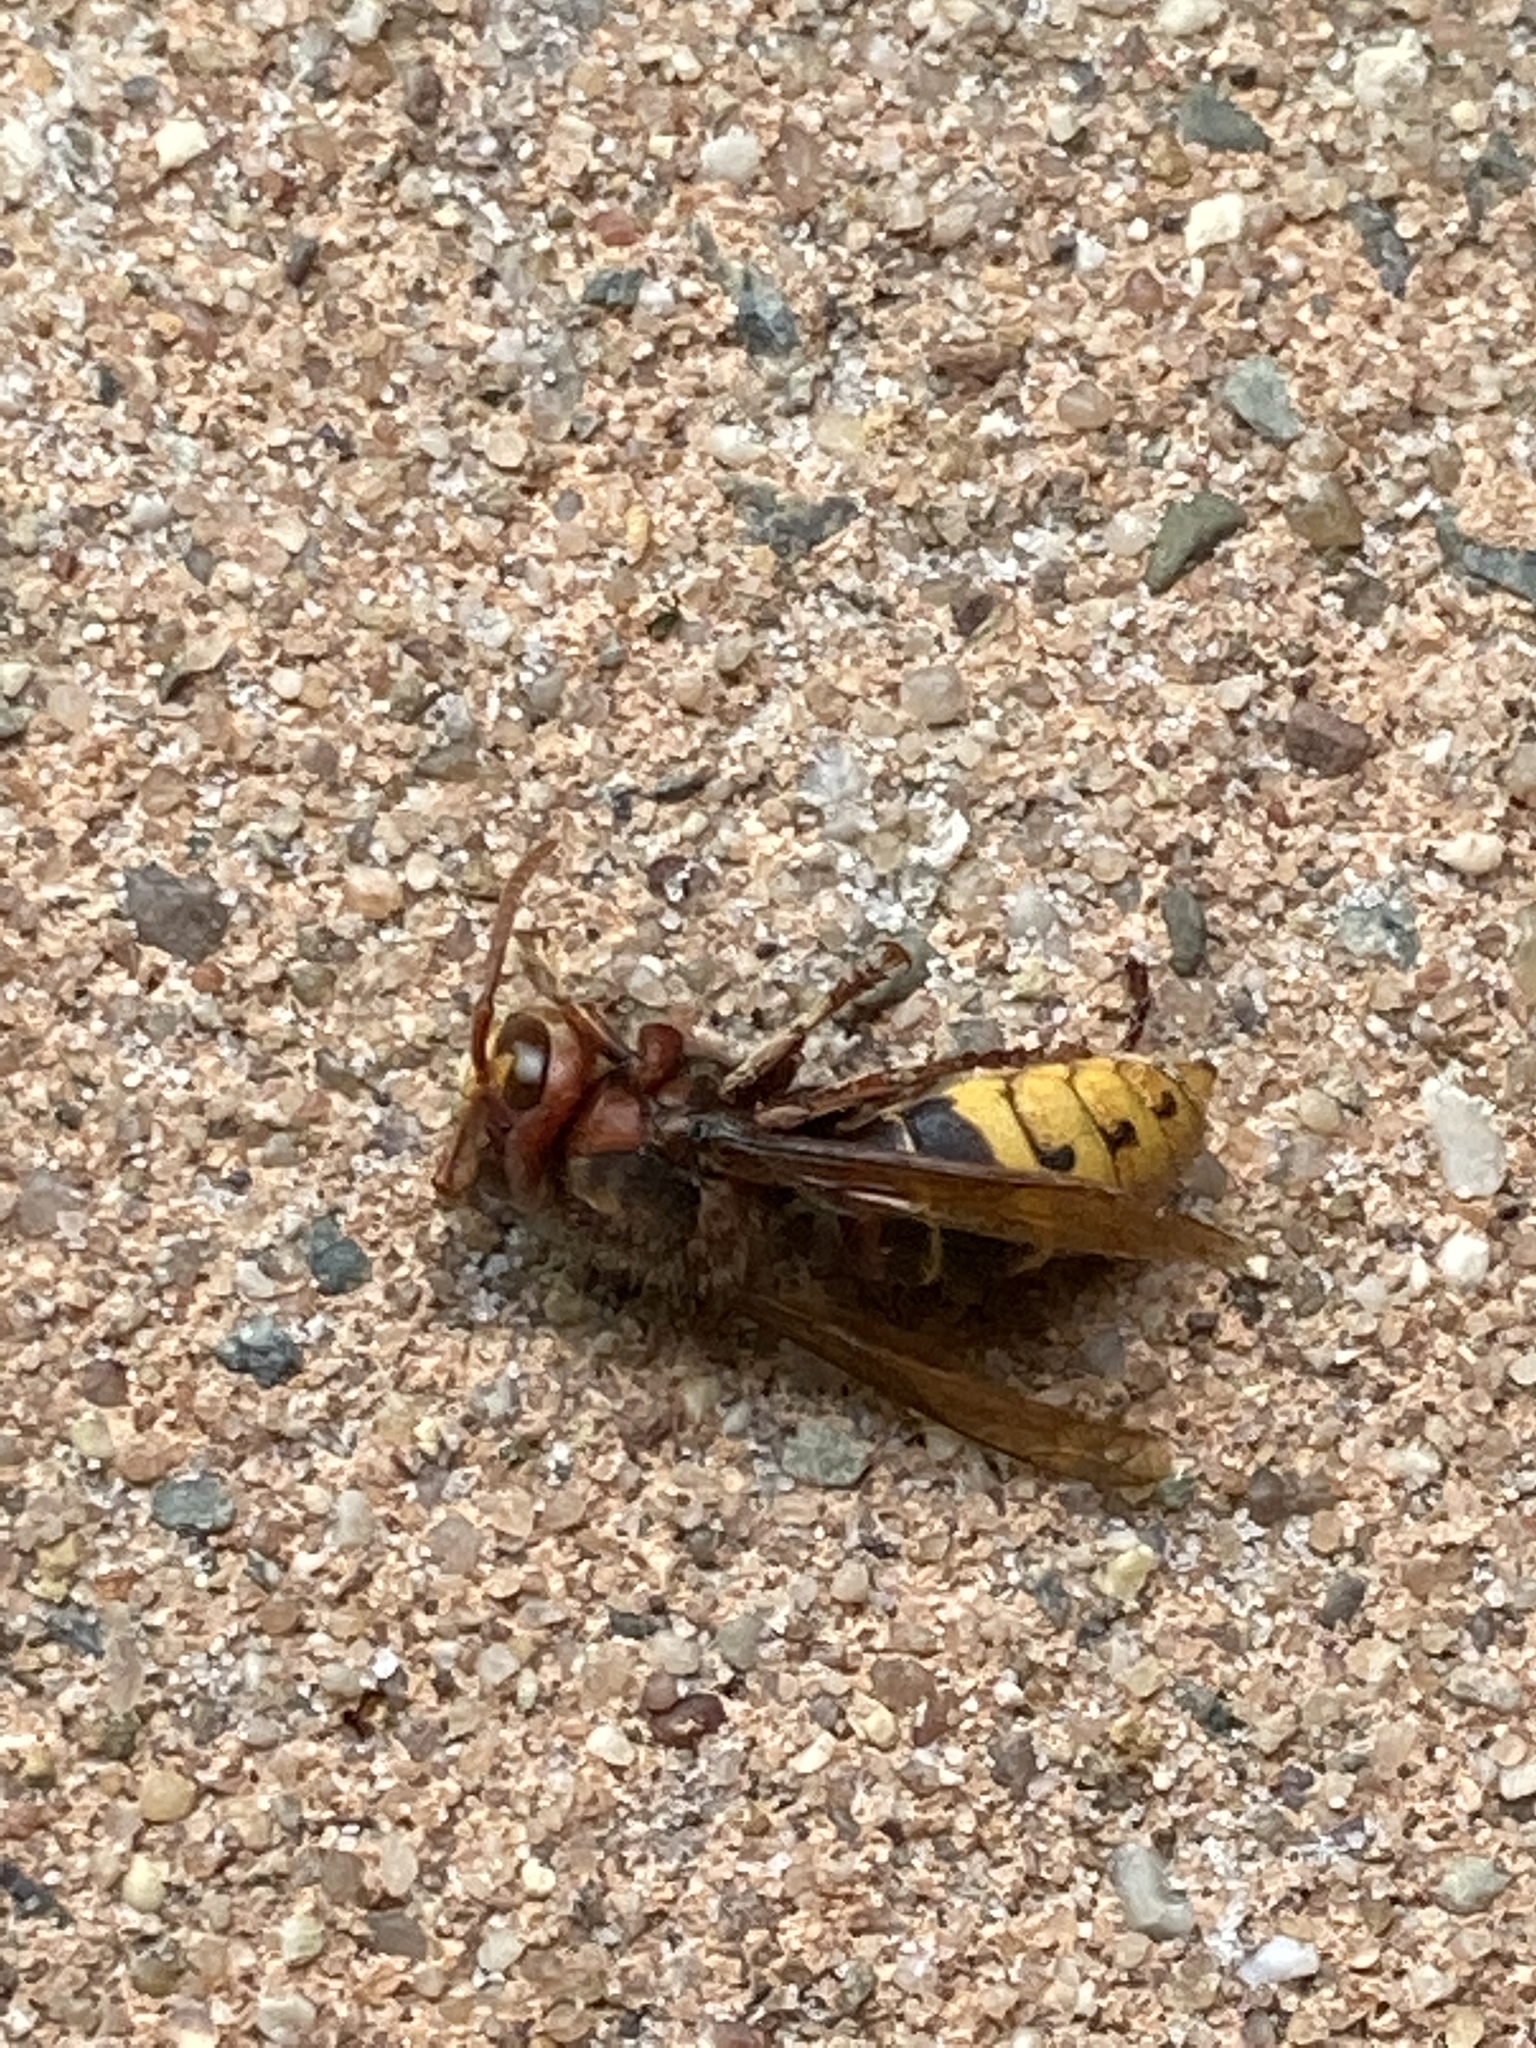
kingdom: Animalia
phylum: Arthropoda
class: Insecta
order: Hymenoptera
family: Vespidae
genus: Vespa
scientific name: Vespa crabro
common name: Hornet
